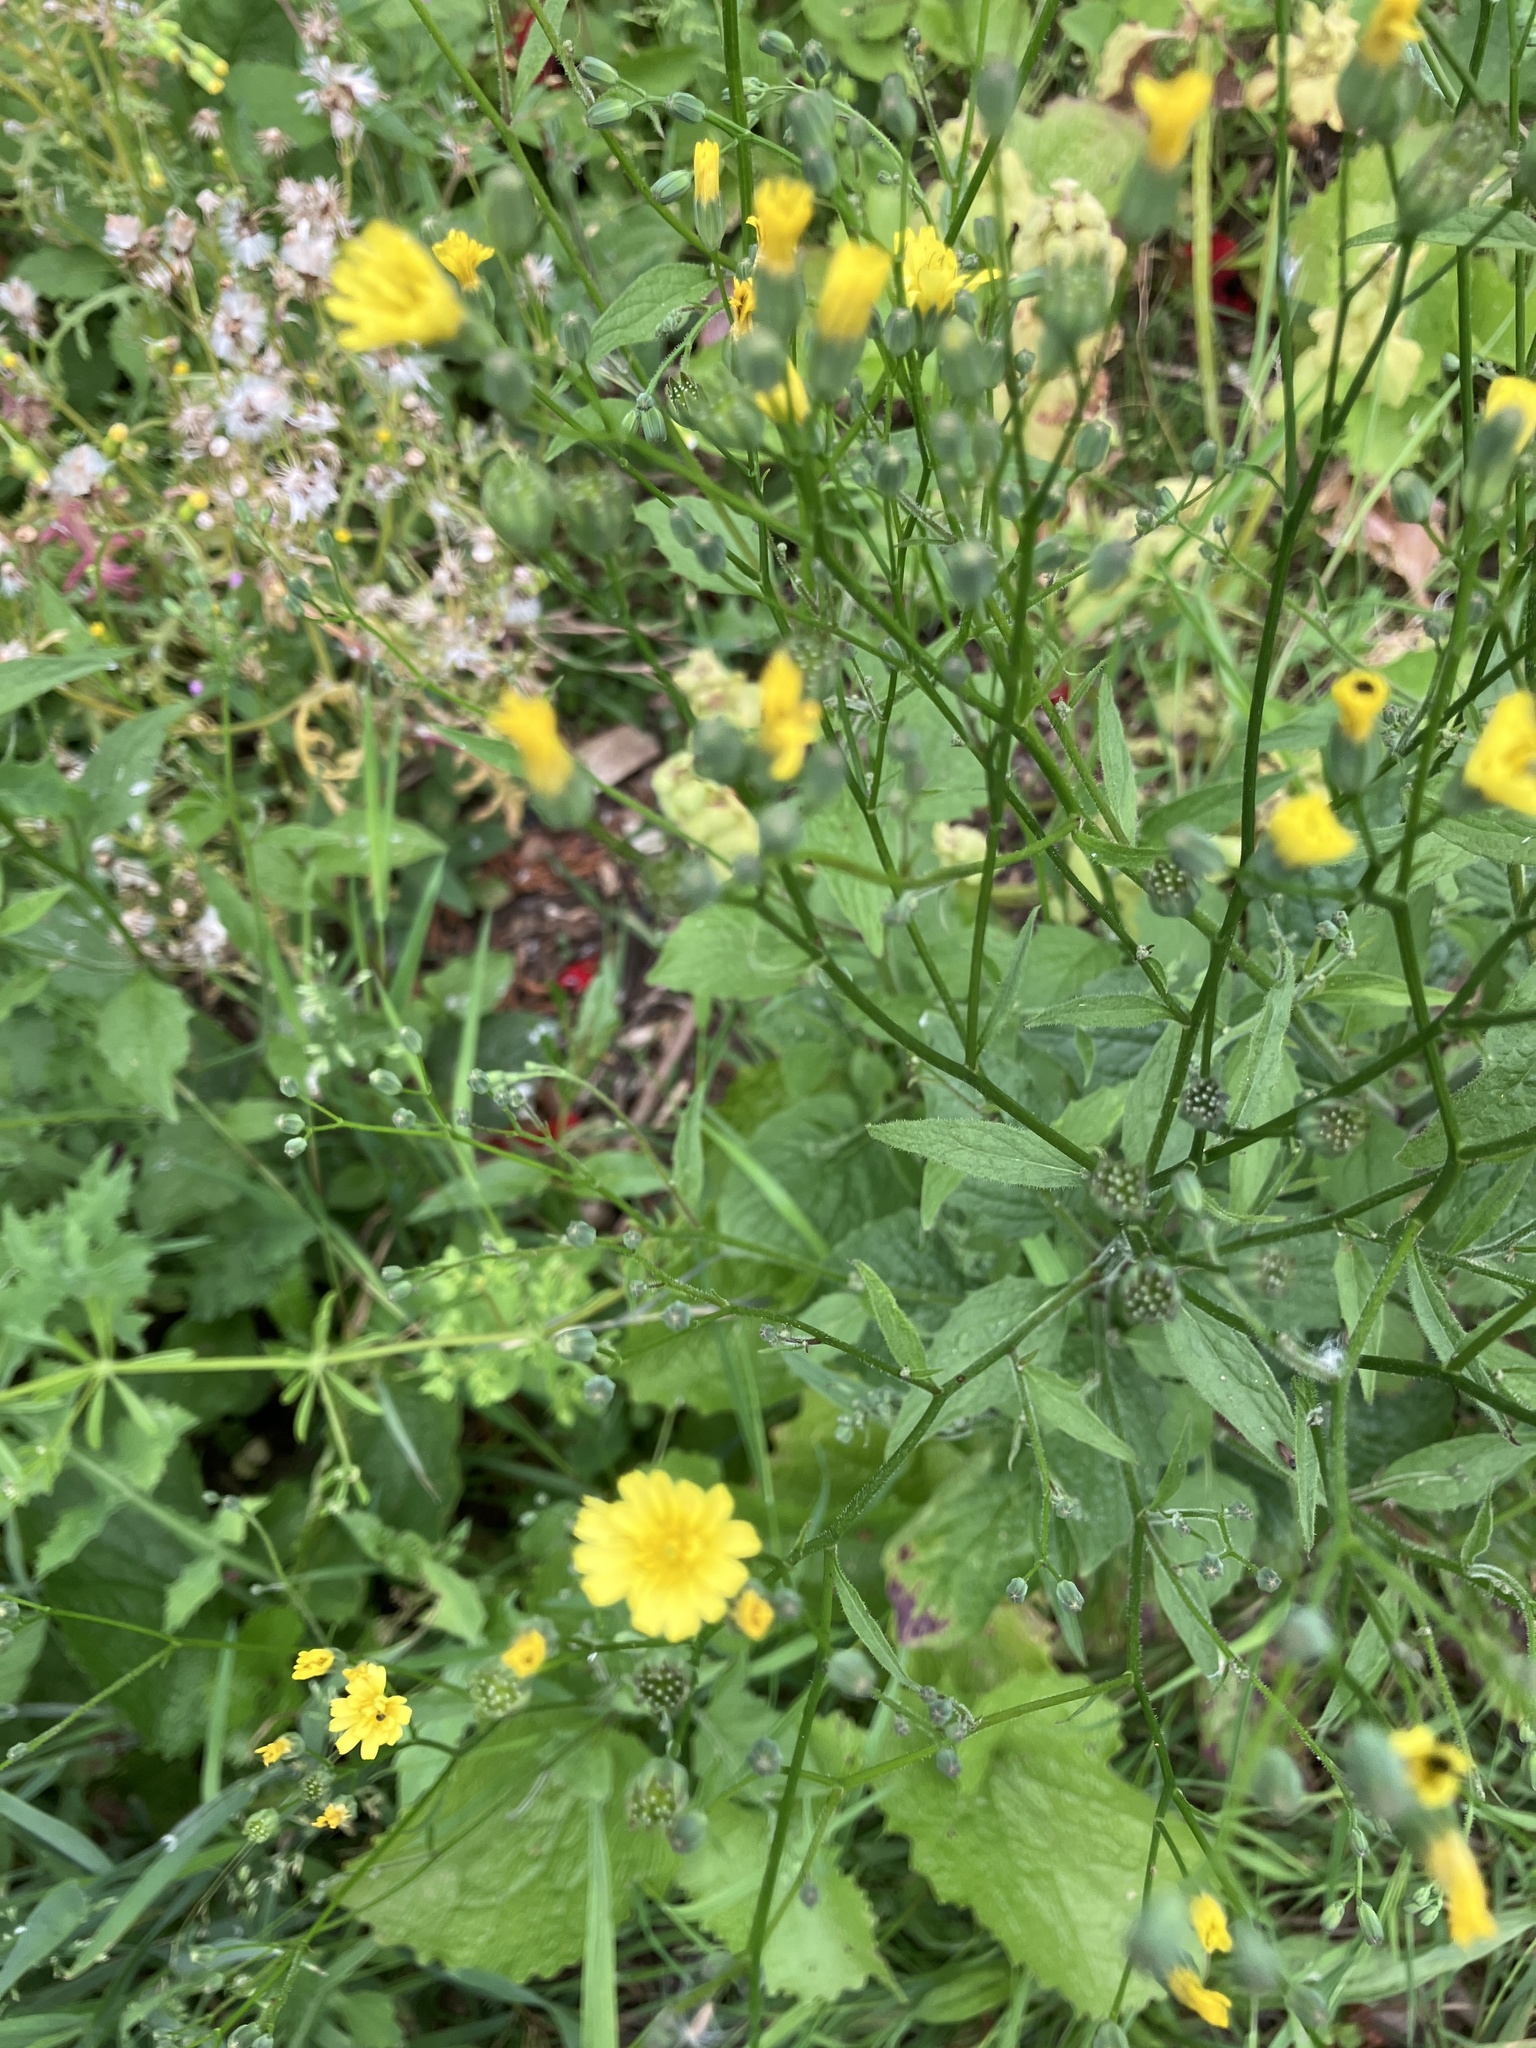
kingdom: Plantae
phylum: Tracheophyta
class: Magnoliopsida
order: Asterales
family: Asteraceae
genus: Lapsana
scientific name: Lapsana communis
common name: Nipplewort
